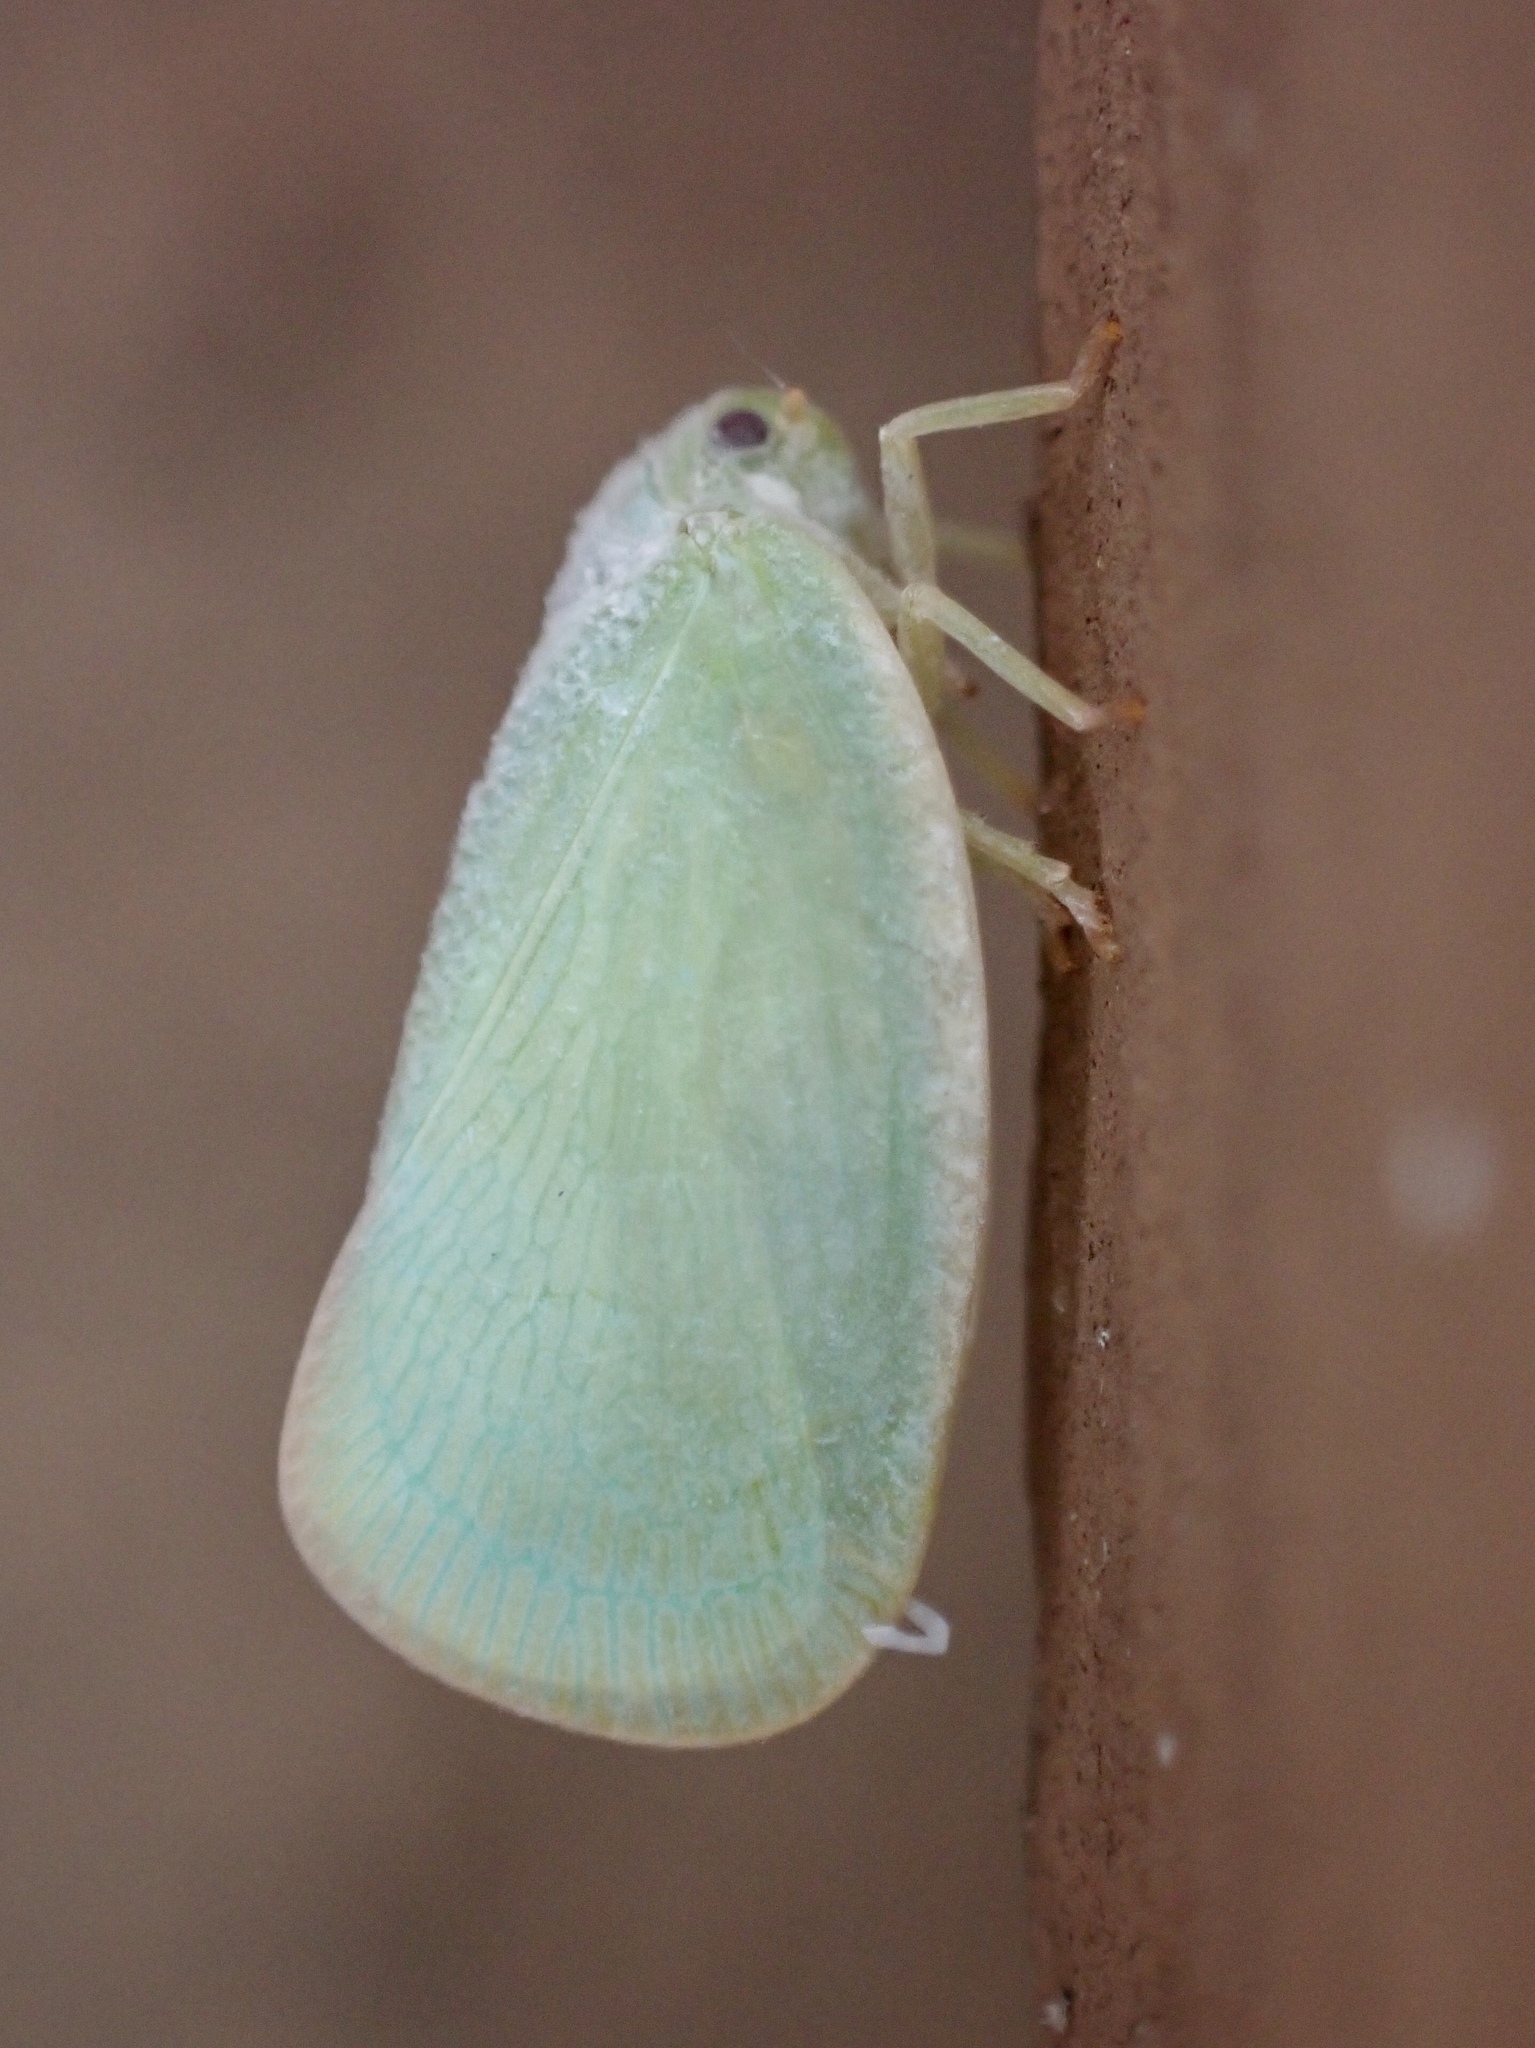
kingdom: Animalia
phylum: Arthropoda
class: Insecta
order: Hemiptera
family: Flatidae
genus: Ormenoides
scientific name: Ormenoides venusta
